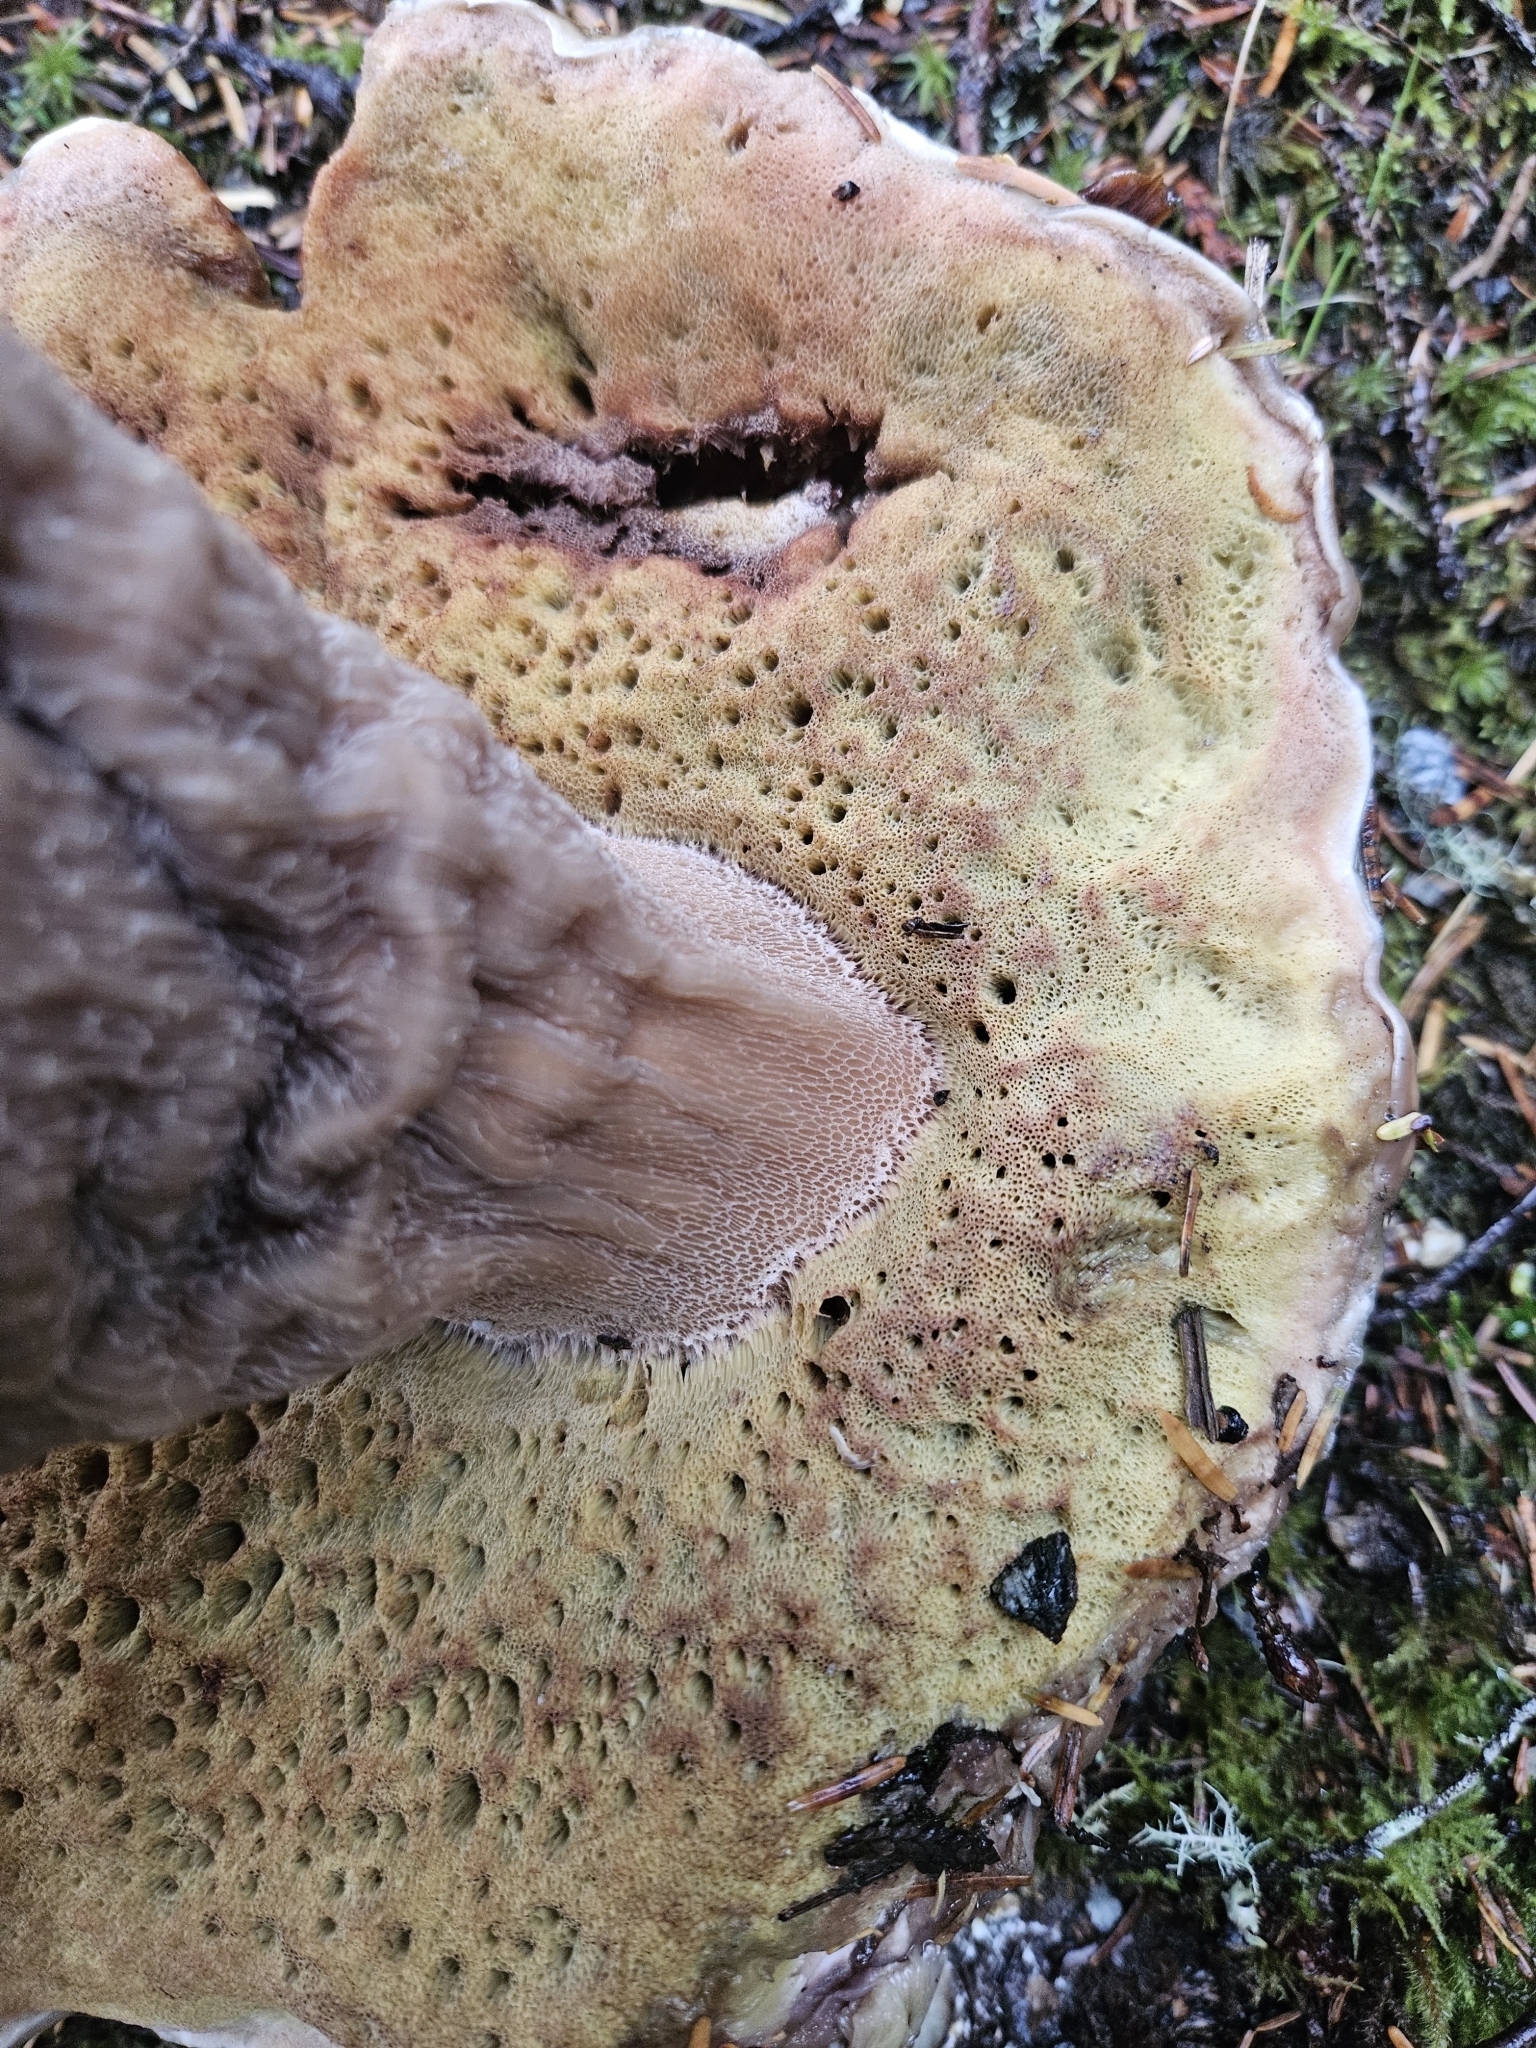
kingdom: Fungi
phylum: Basidiomycota
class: Agaricomycetes
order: Boletales
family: Boletaceae
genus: Boletus
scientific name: Boletus edulis
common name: Cep
